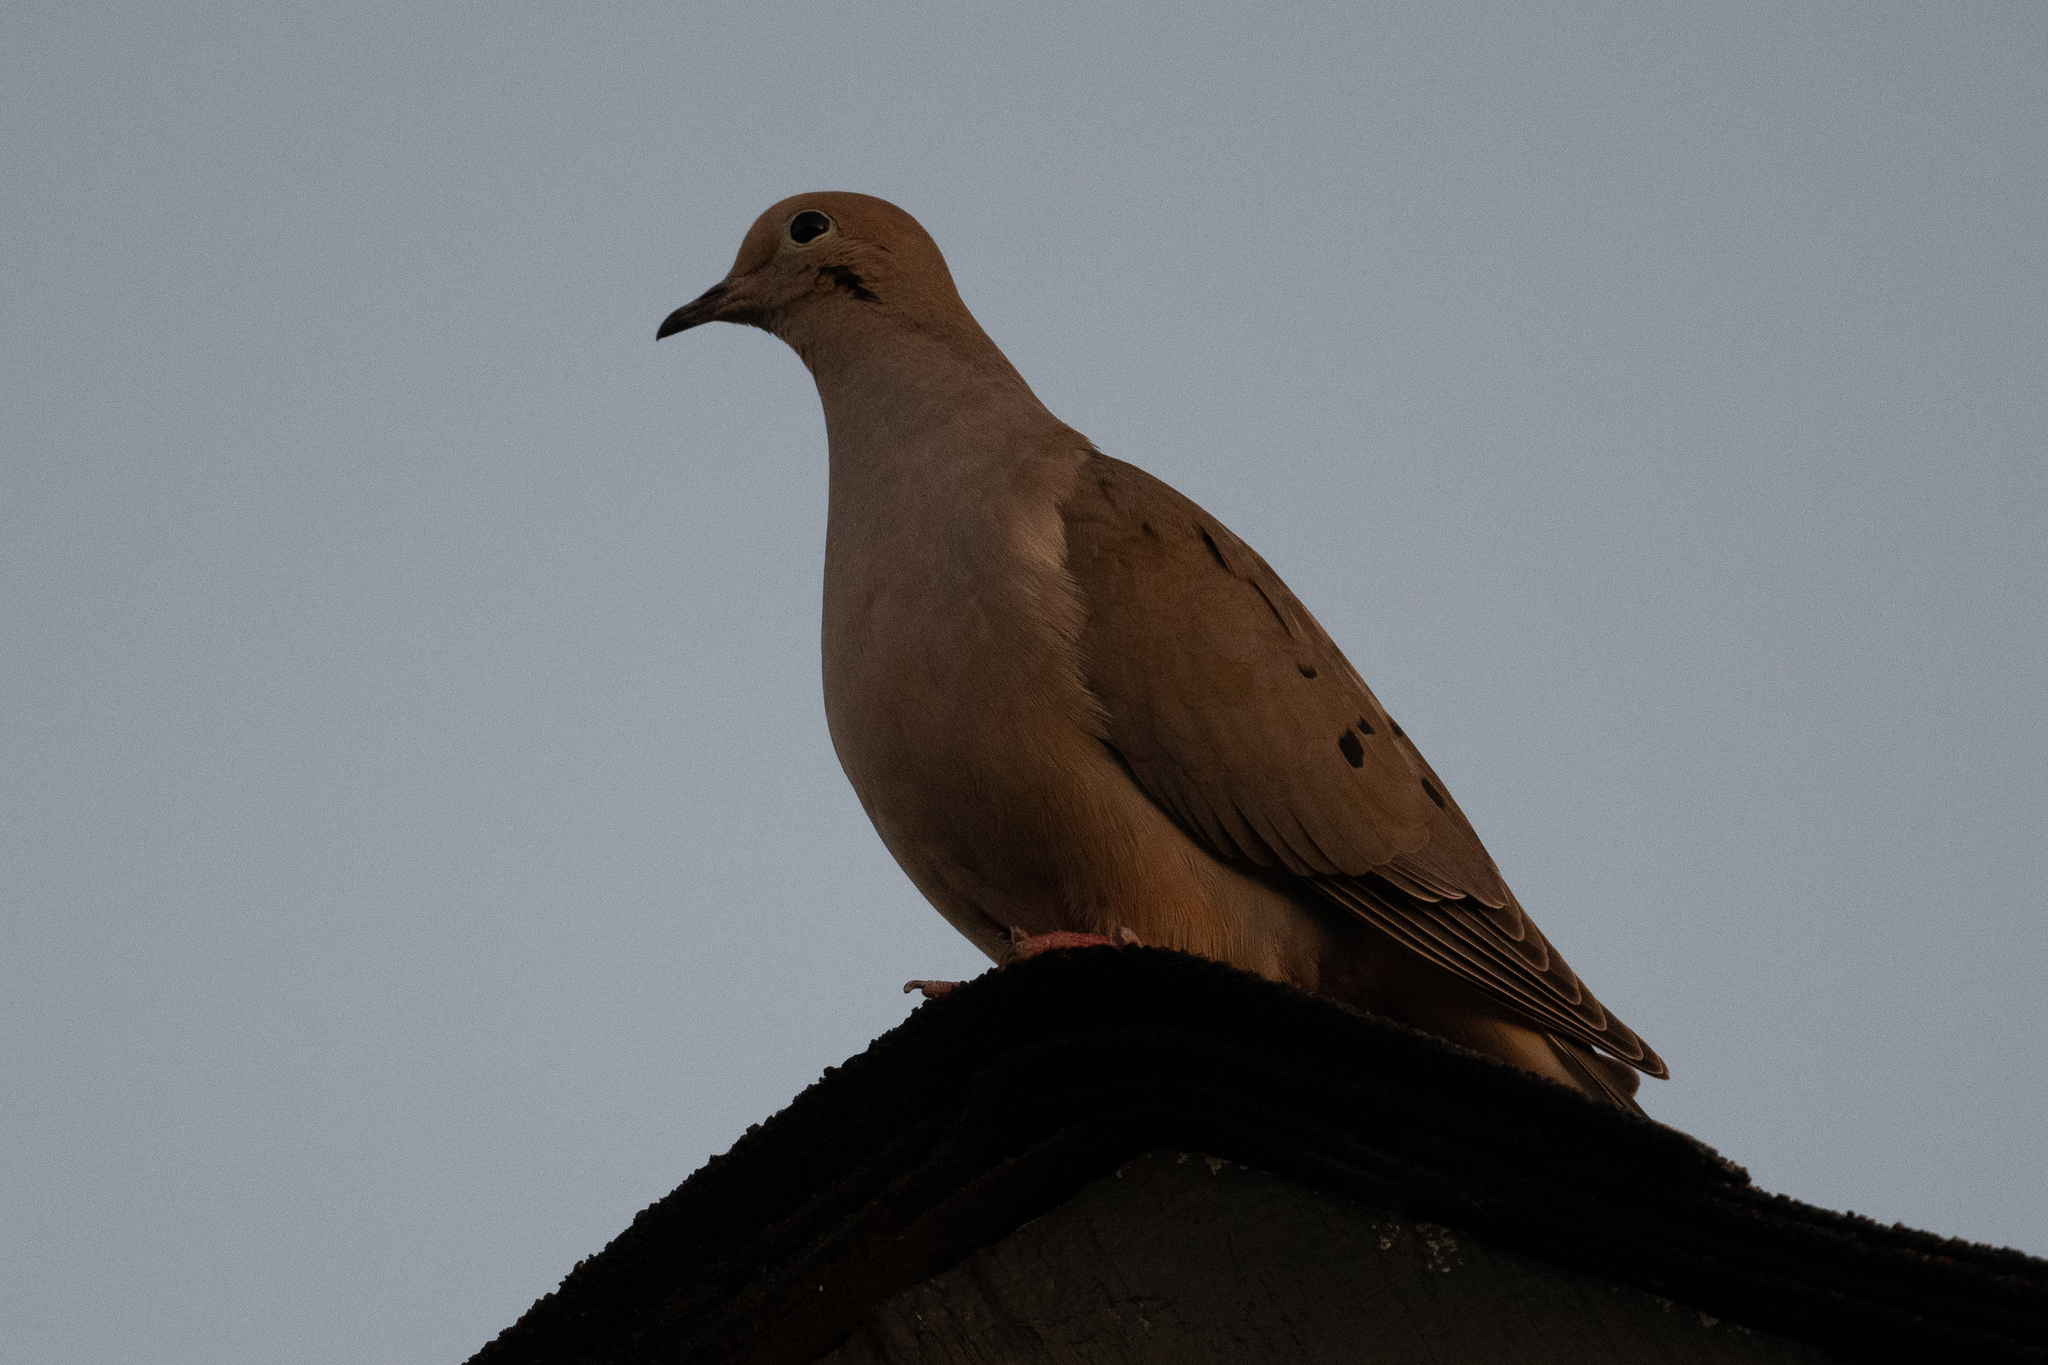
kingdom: Animalia
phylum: Chordata
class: Aves
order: Columbiformes
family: Columbidae
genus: Zenaida
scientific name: Zenaida macroura
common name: Mourning dove
